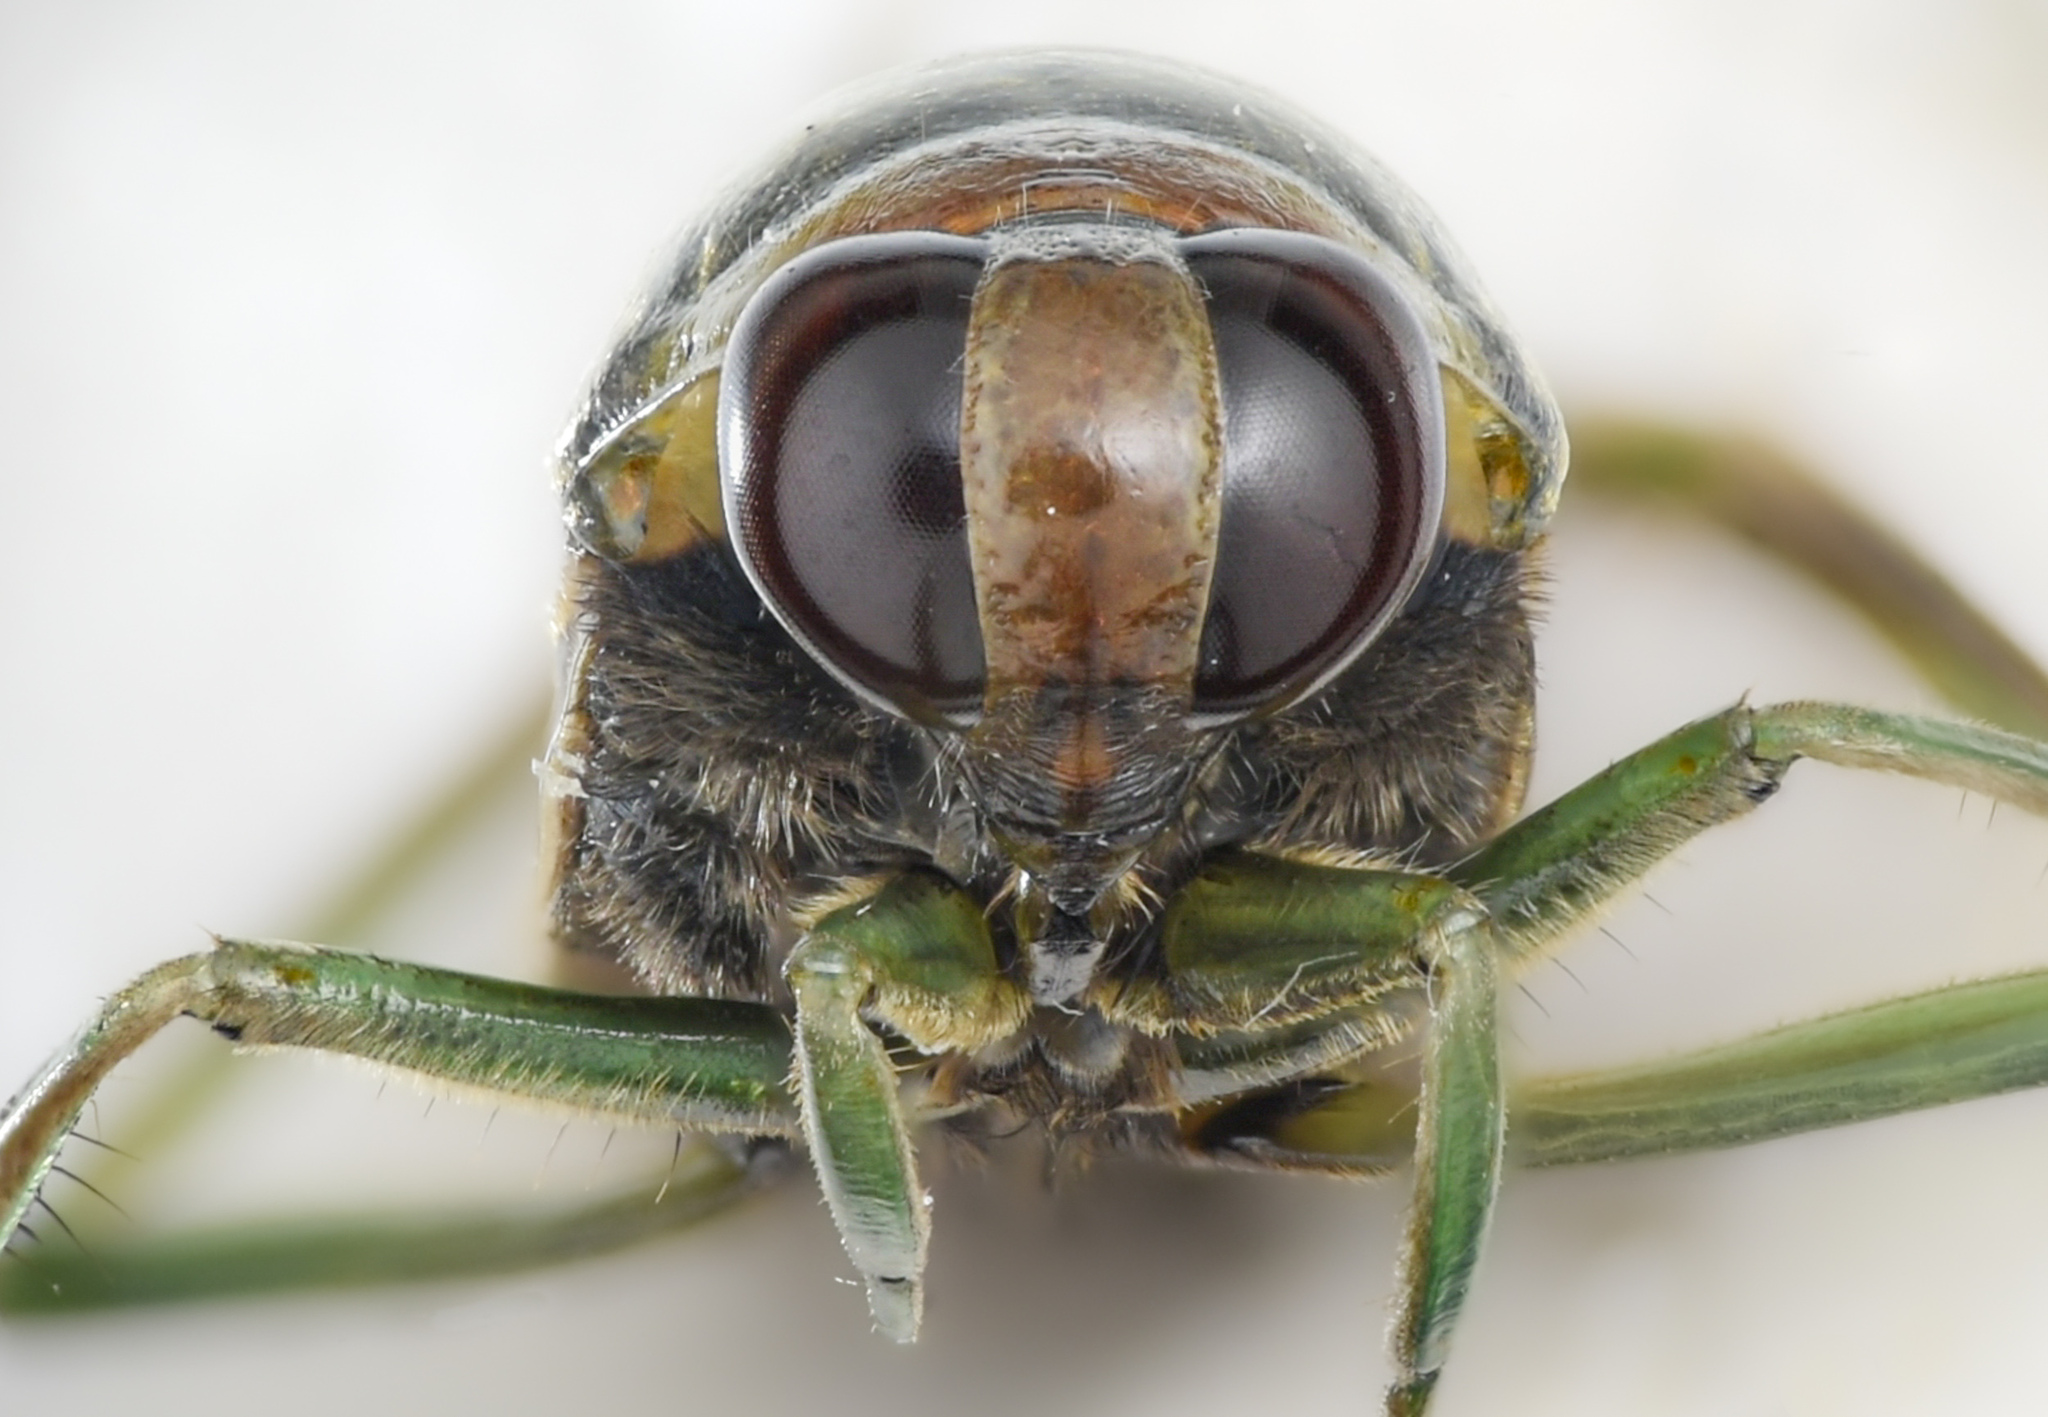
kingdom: Animalia
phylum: Arthropoda
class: Insecta
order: Hemiptera
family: Notonectidae
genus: Notonecta
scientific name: Notonecta kirbyi
